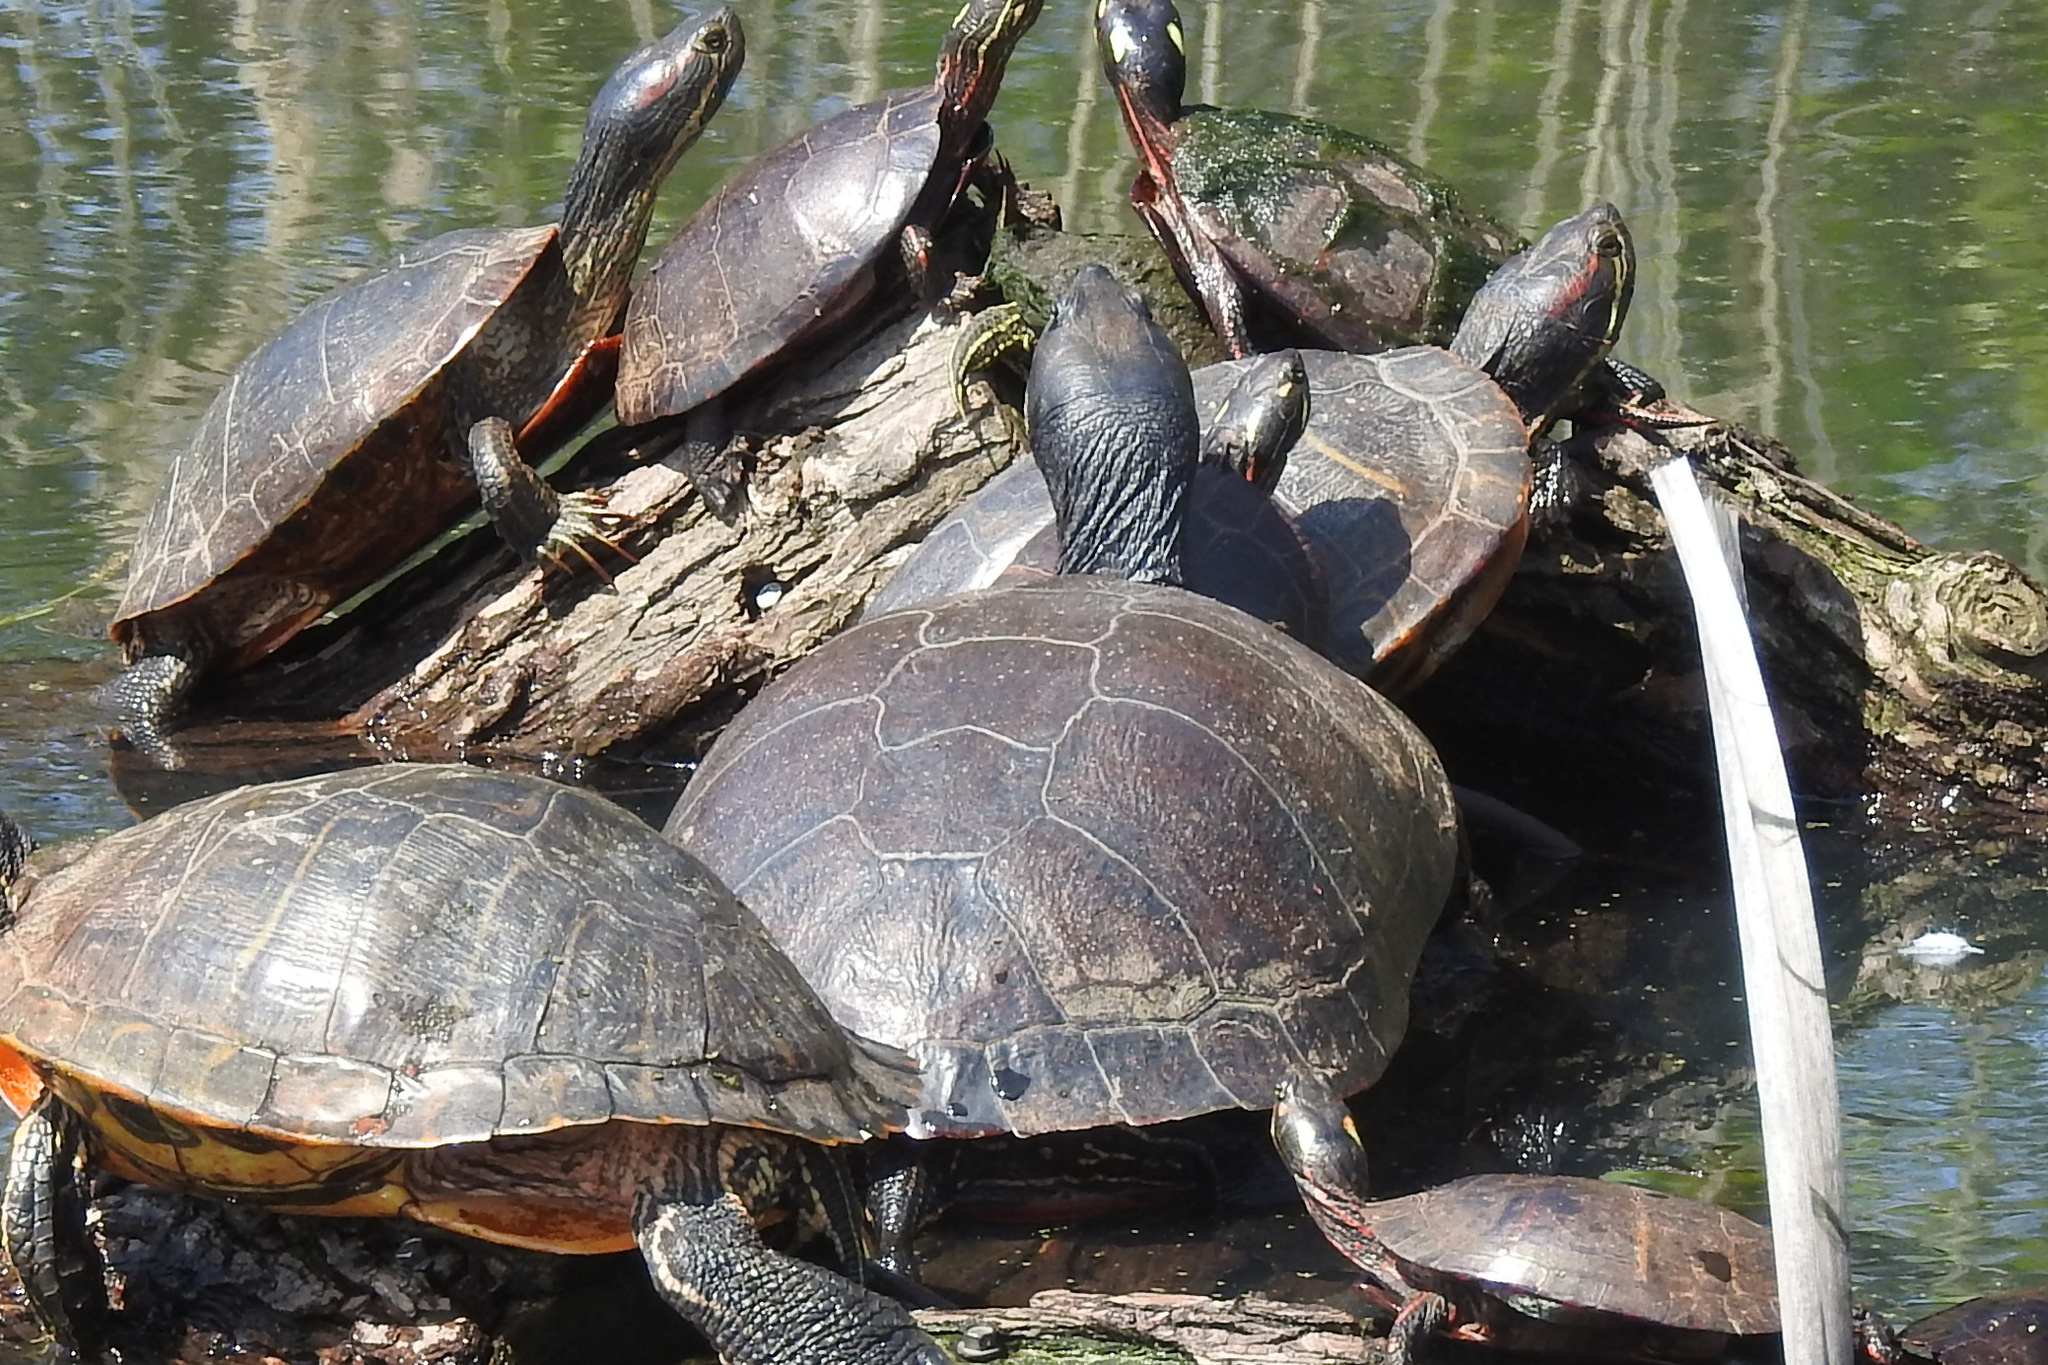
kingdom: Animalia
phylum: Chordata
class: Testudines
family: Emydidae
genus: Pseudemys
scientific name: Pseudemys rubriventris
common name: American red-bellied turtle
